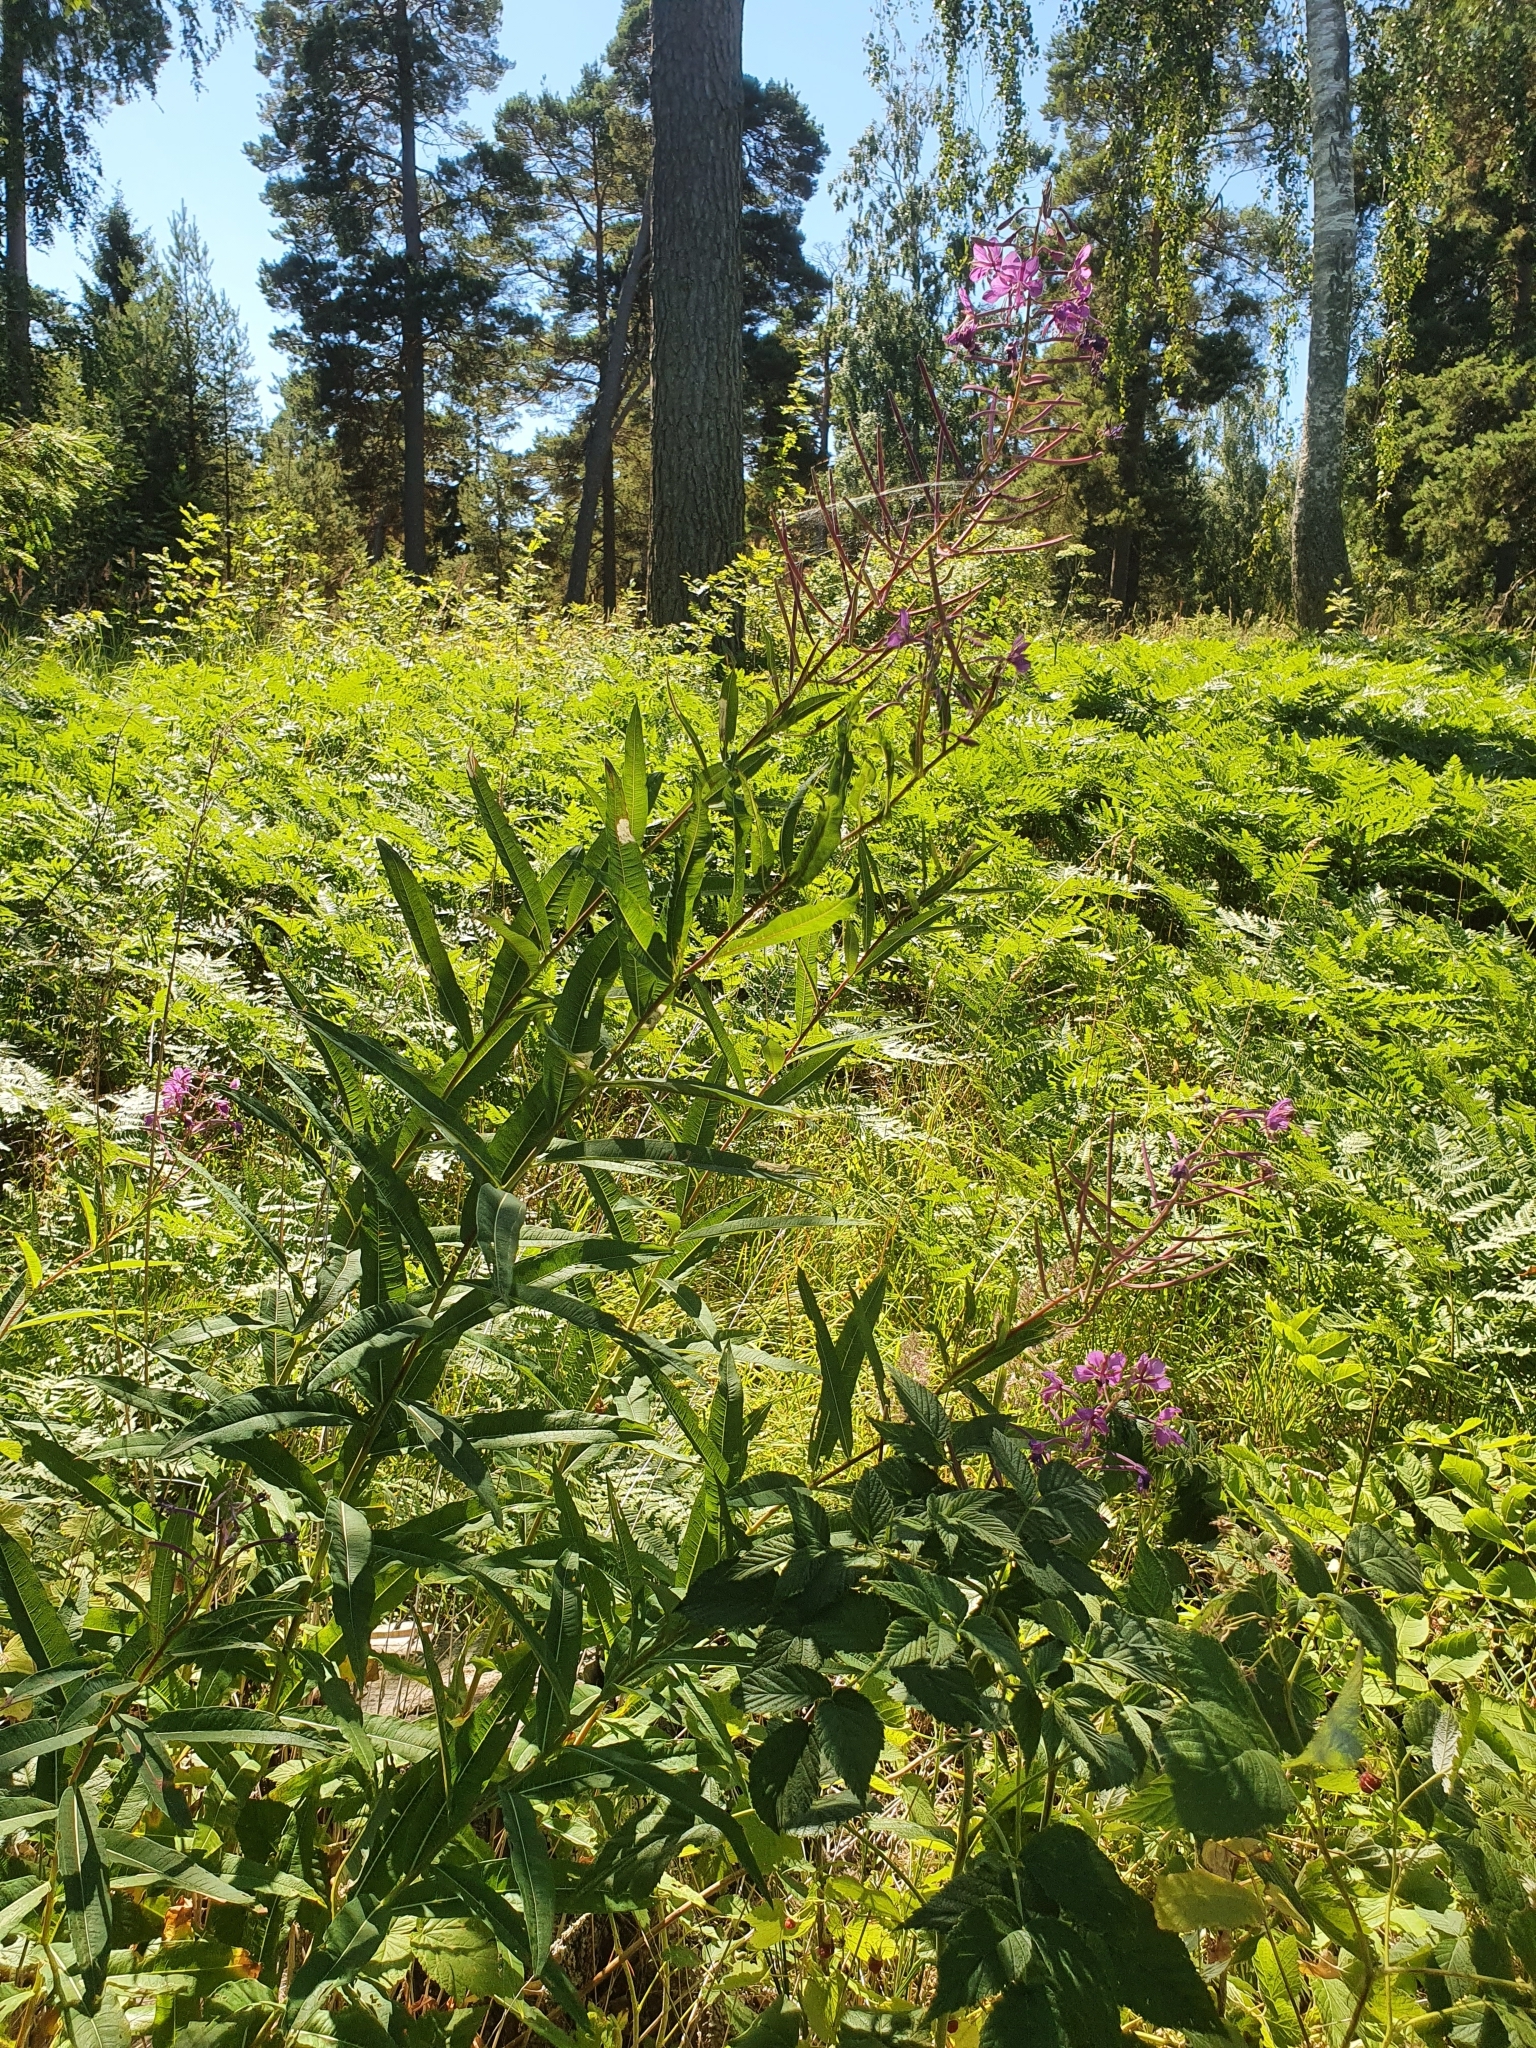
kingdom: Plantae
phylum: Tracheophyta
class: Magnoliopsida
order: Myrtales
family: Onagraceae
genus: Chamaenerion
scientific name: Chamaenerion angustifolium
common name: Fireweed
